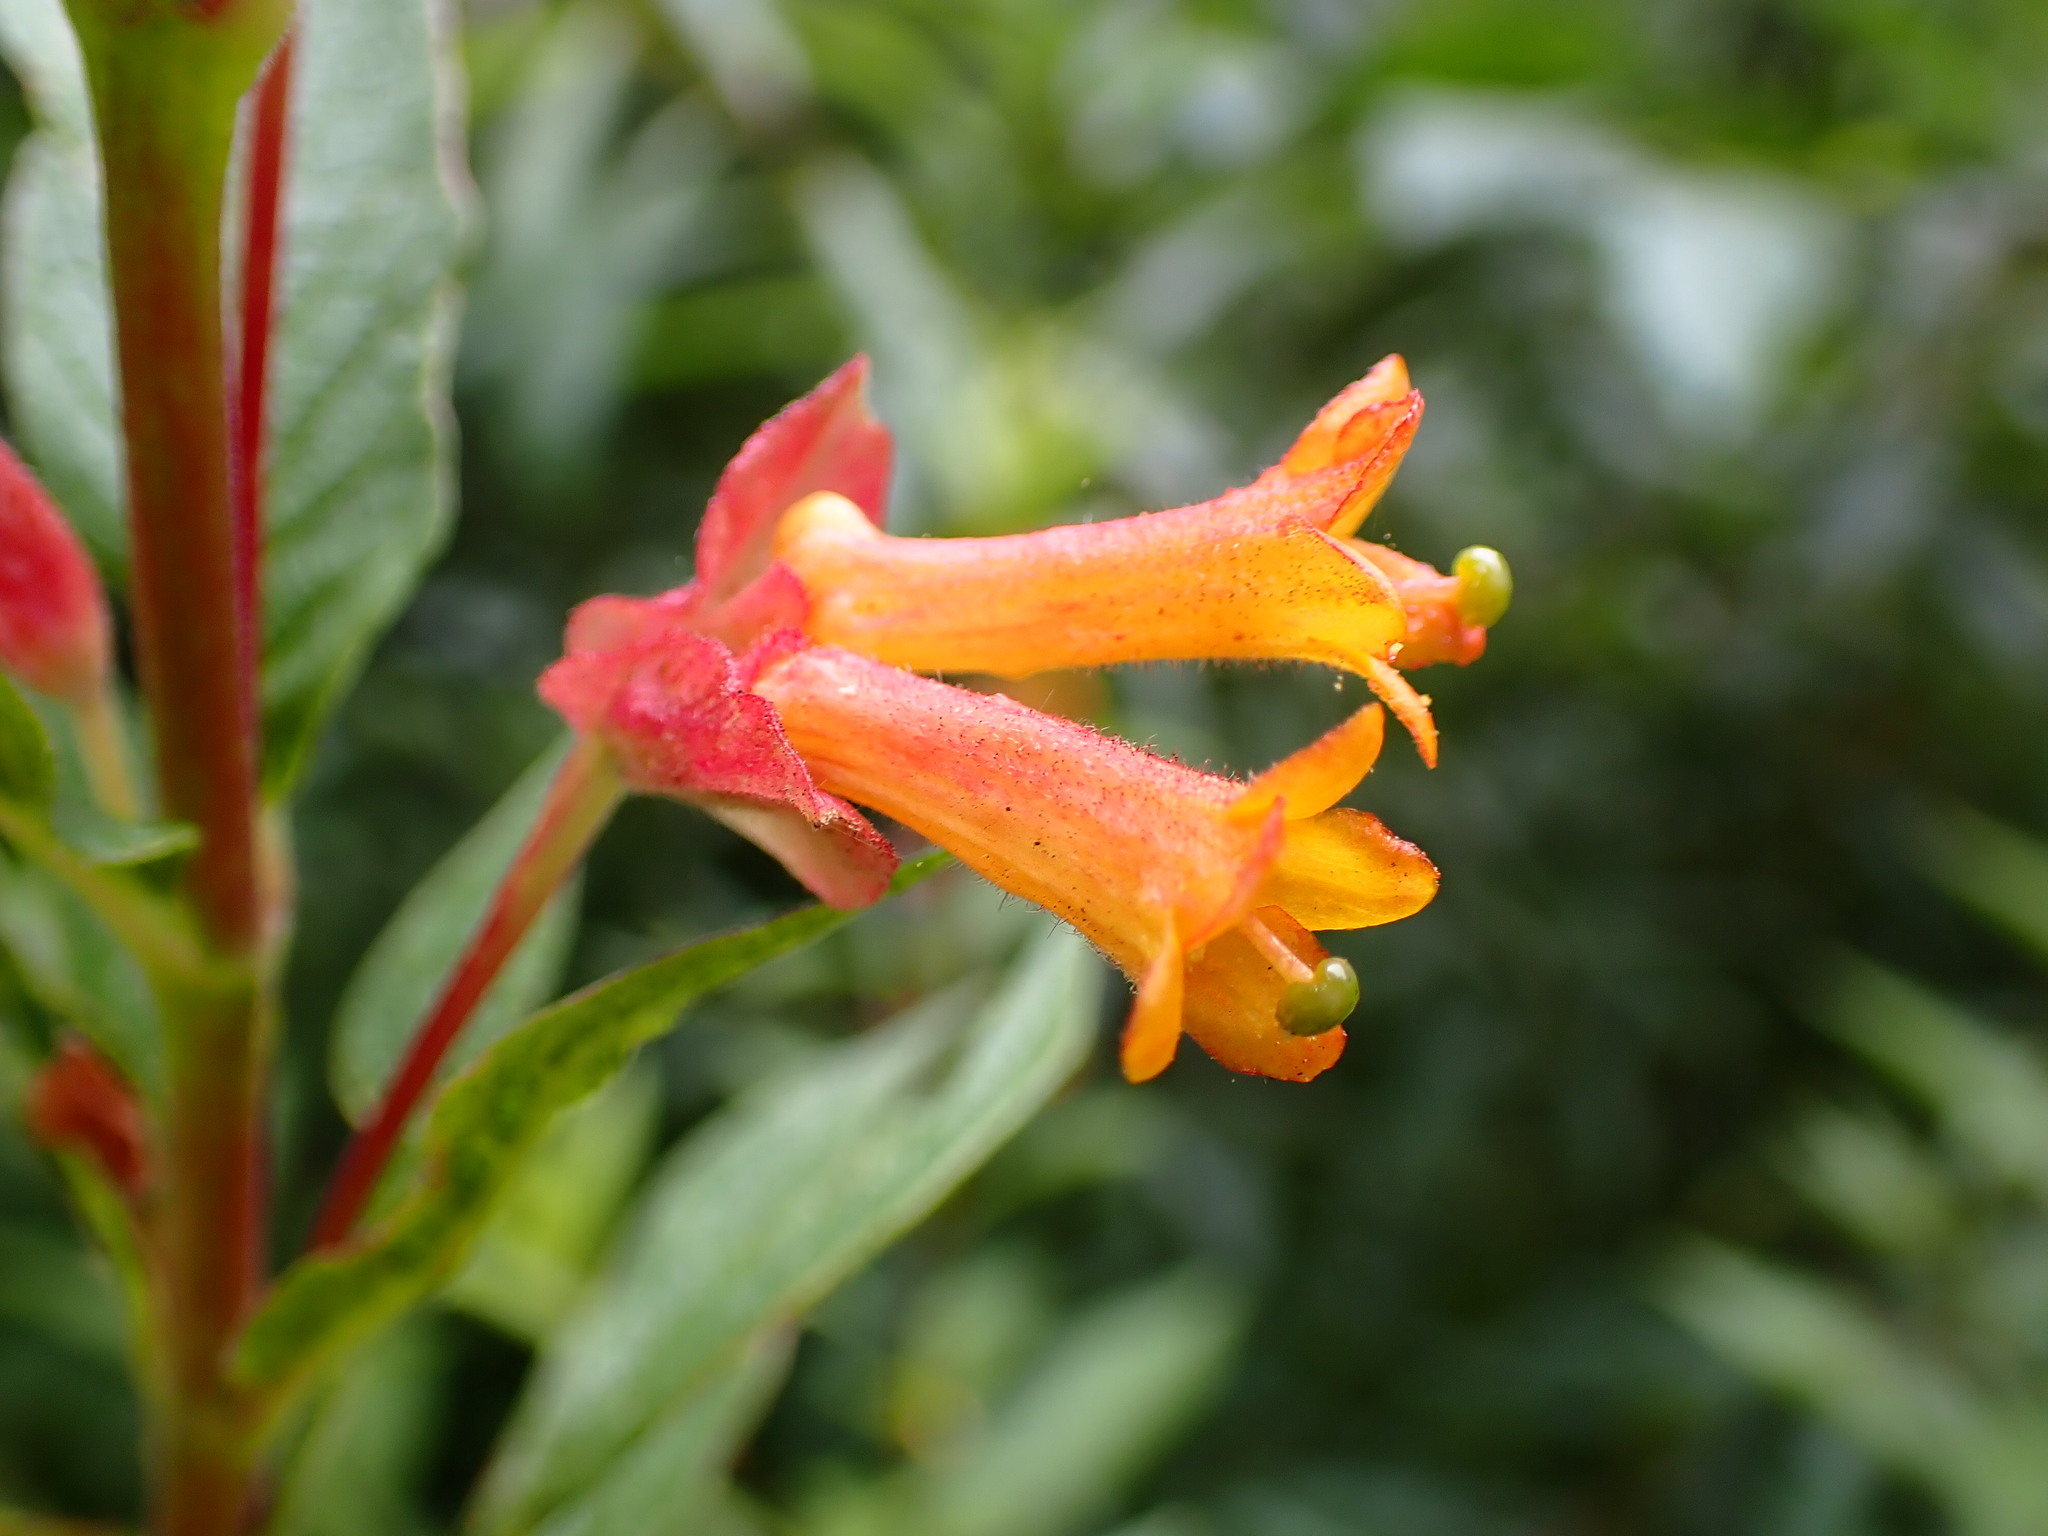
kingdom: Plantae
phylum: Tracheophyta
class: Magnoliopsida
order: Dipsacales
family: Caprifoliaceae
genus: Lonicera
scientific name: Lonicera involucrata
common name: Californian honeysuckle
